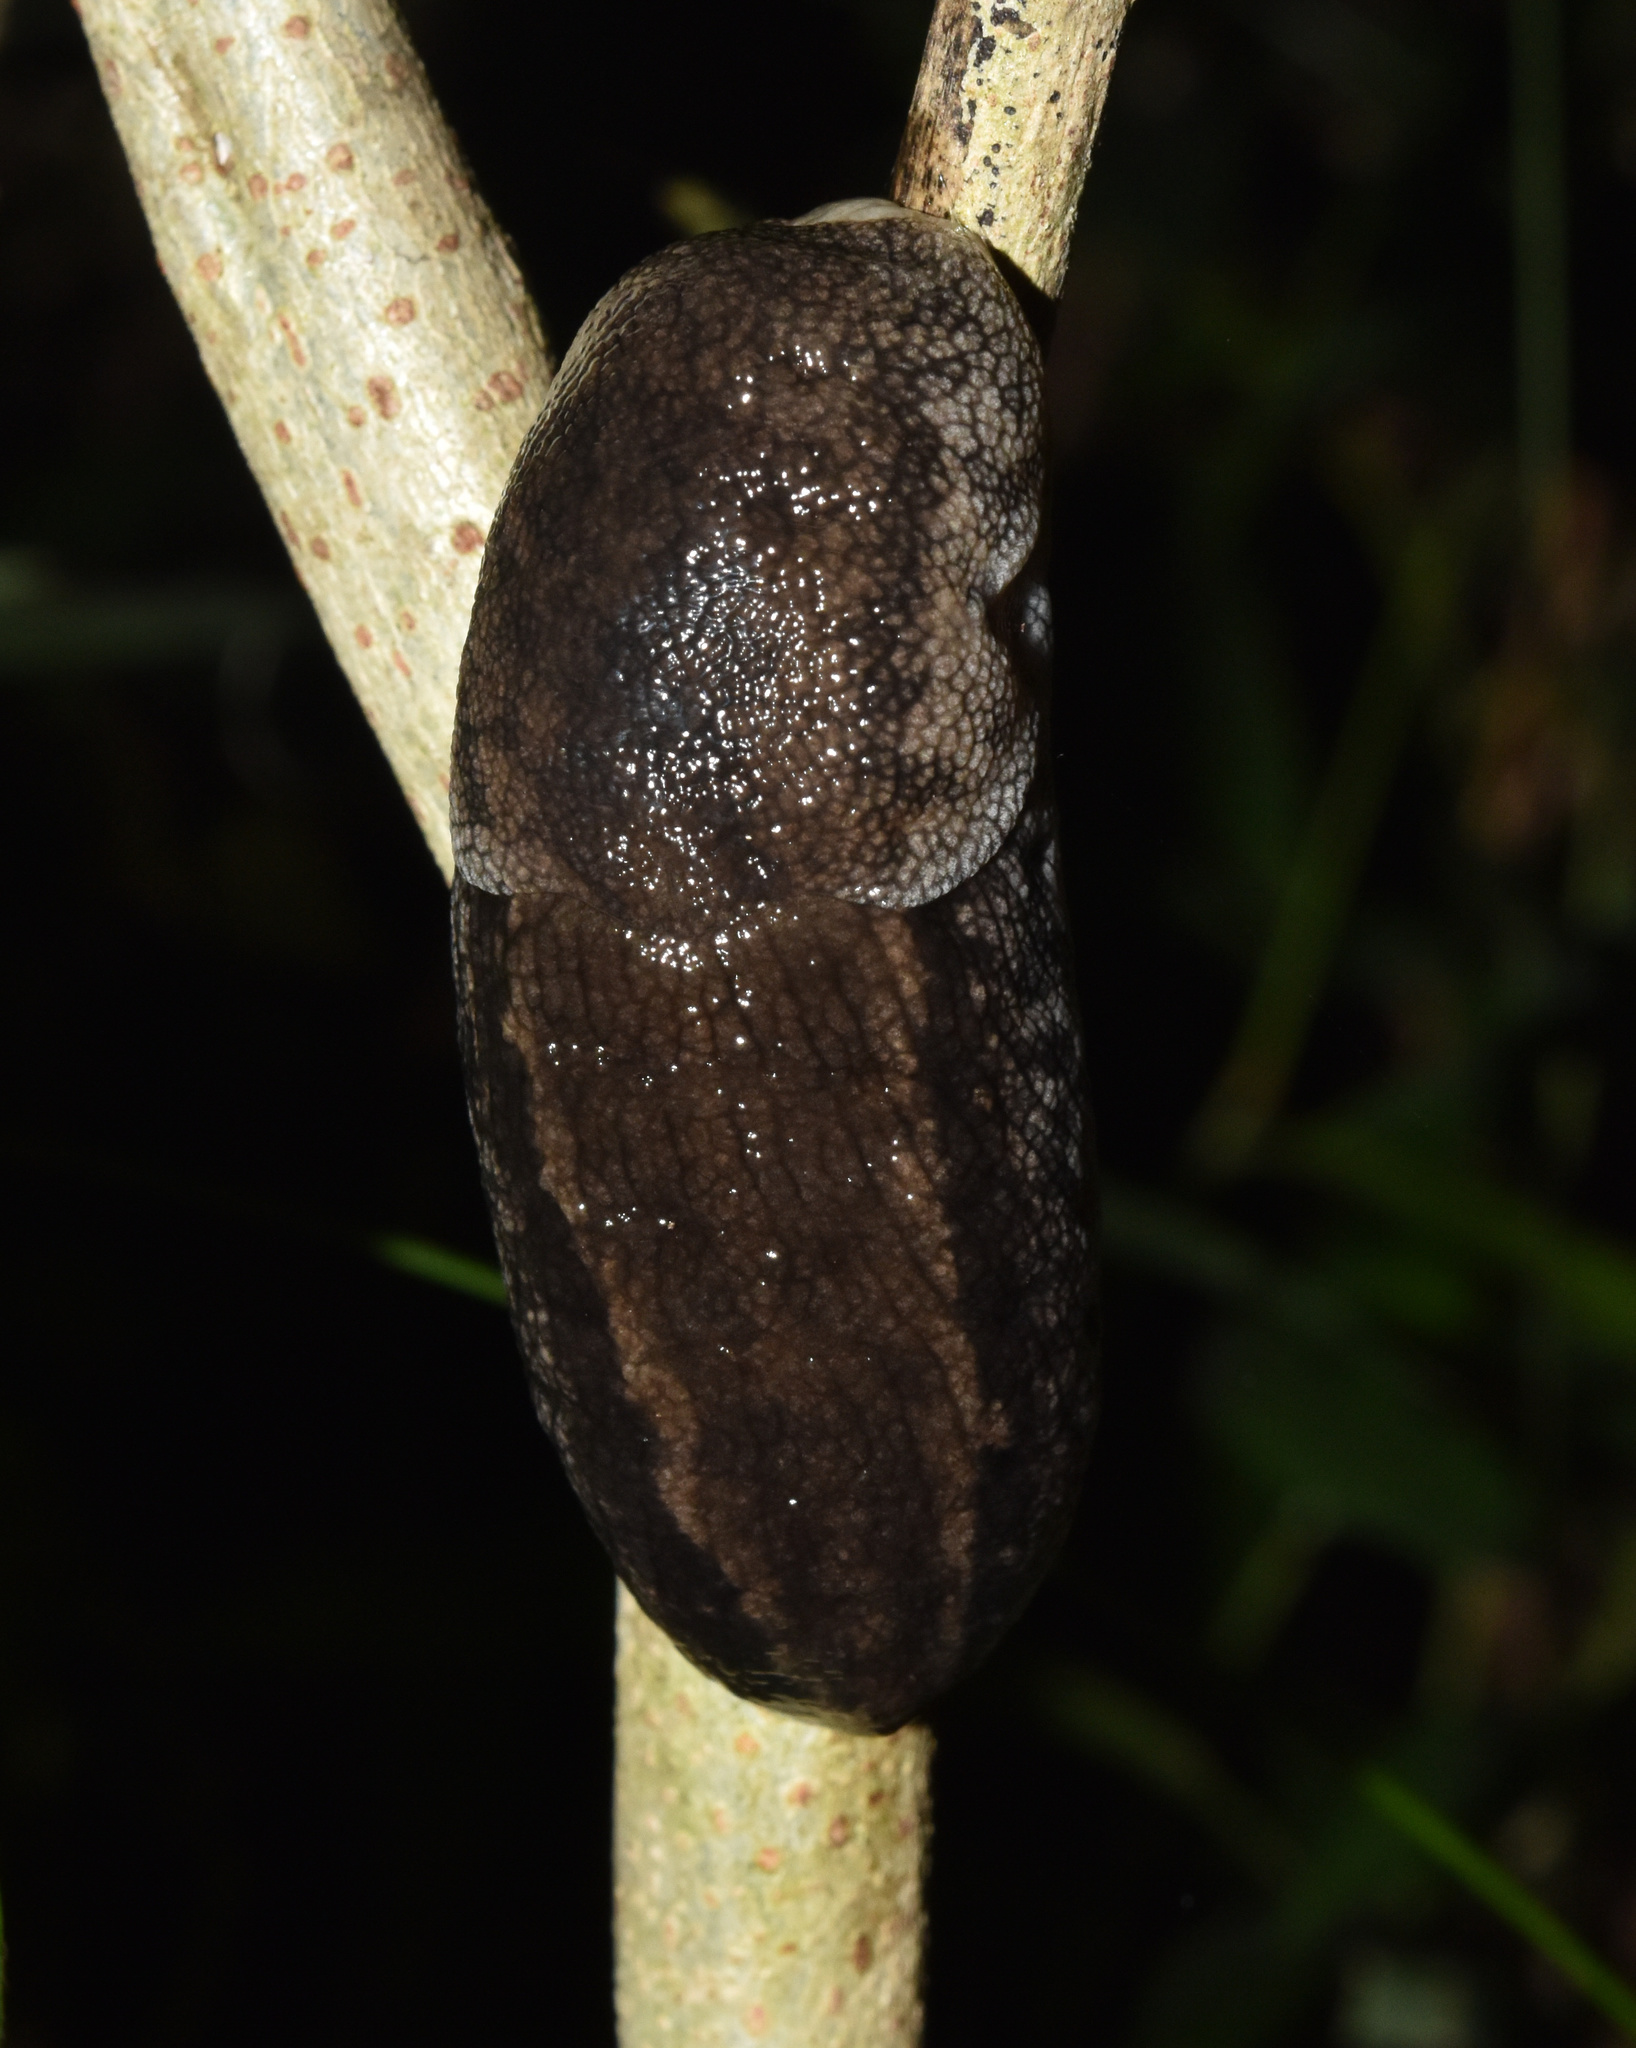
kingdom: Animalia
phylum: Mollusca
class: Gastropoda
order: Stylommatophora
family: Urocyclidae
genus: Urocyclus
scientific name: Urocyclus kirkii
